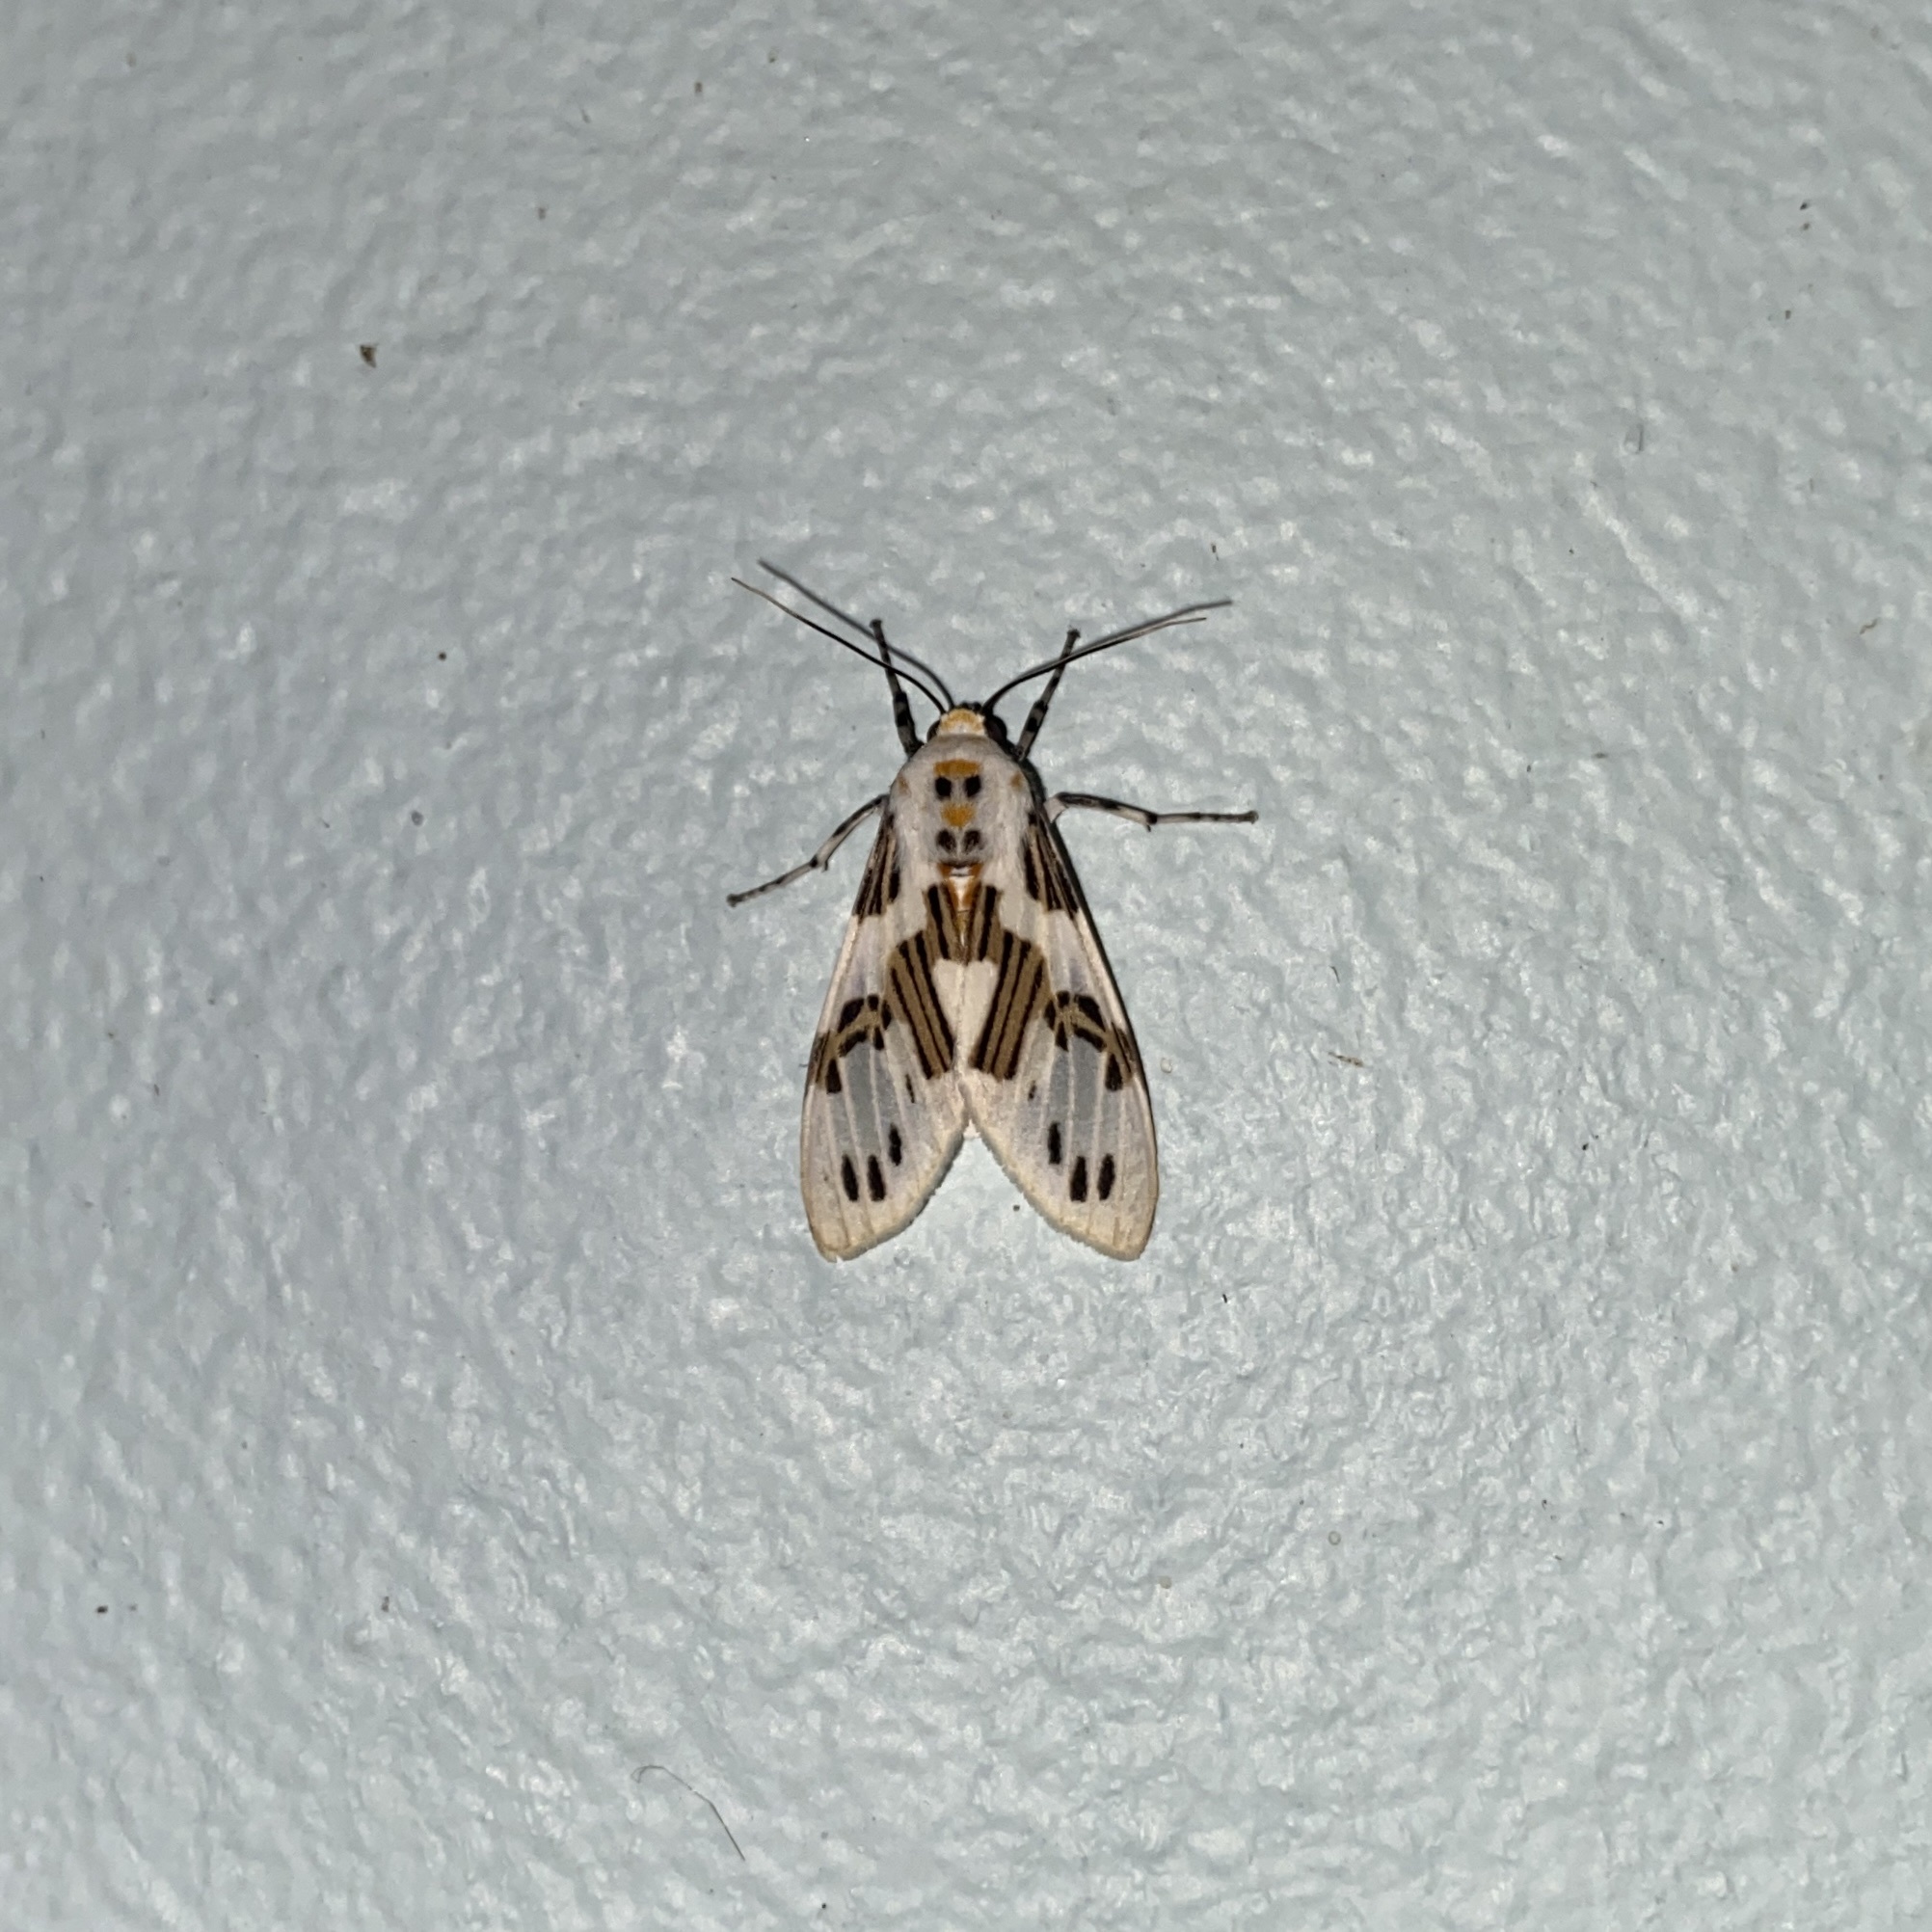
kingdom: Animalia
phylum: Arthropoda
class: Insecta
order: Lepidoptera
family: Erebidae
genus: Idalus
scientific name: Idalus daga
